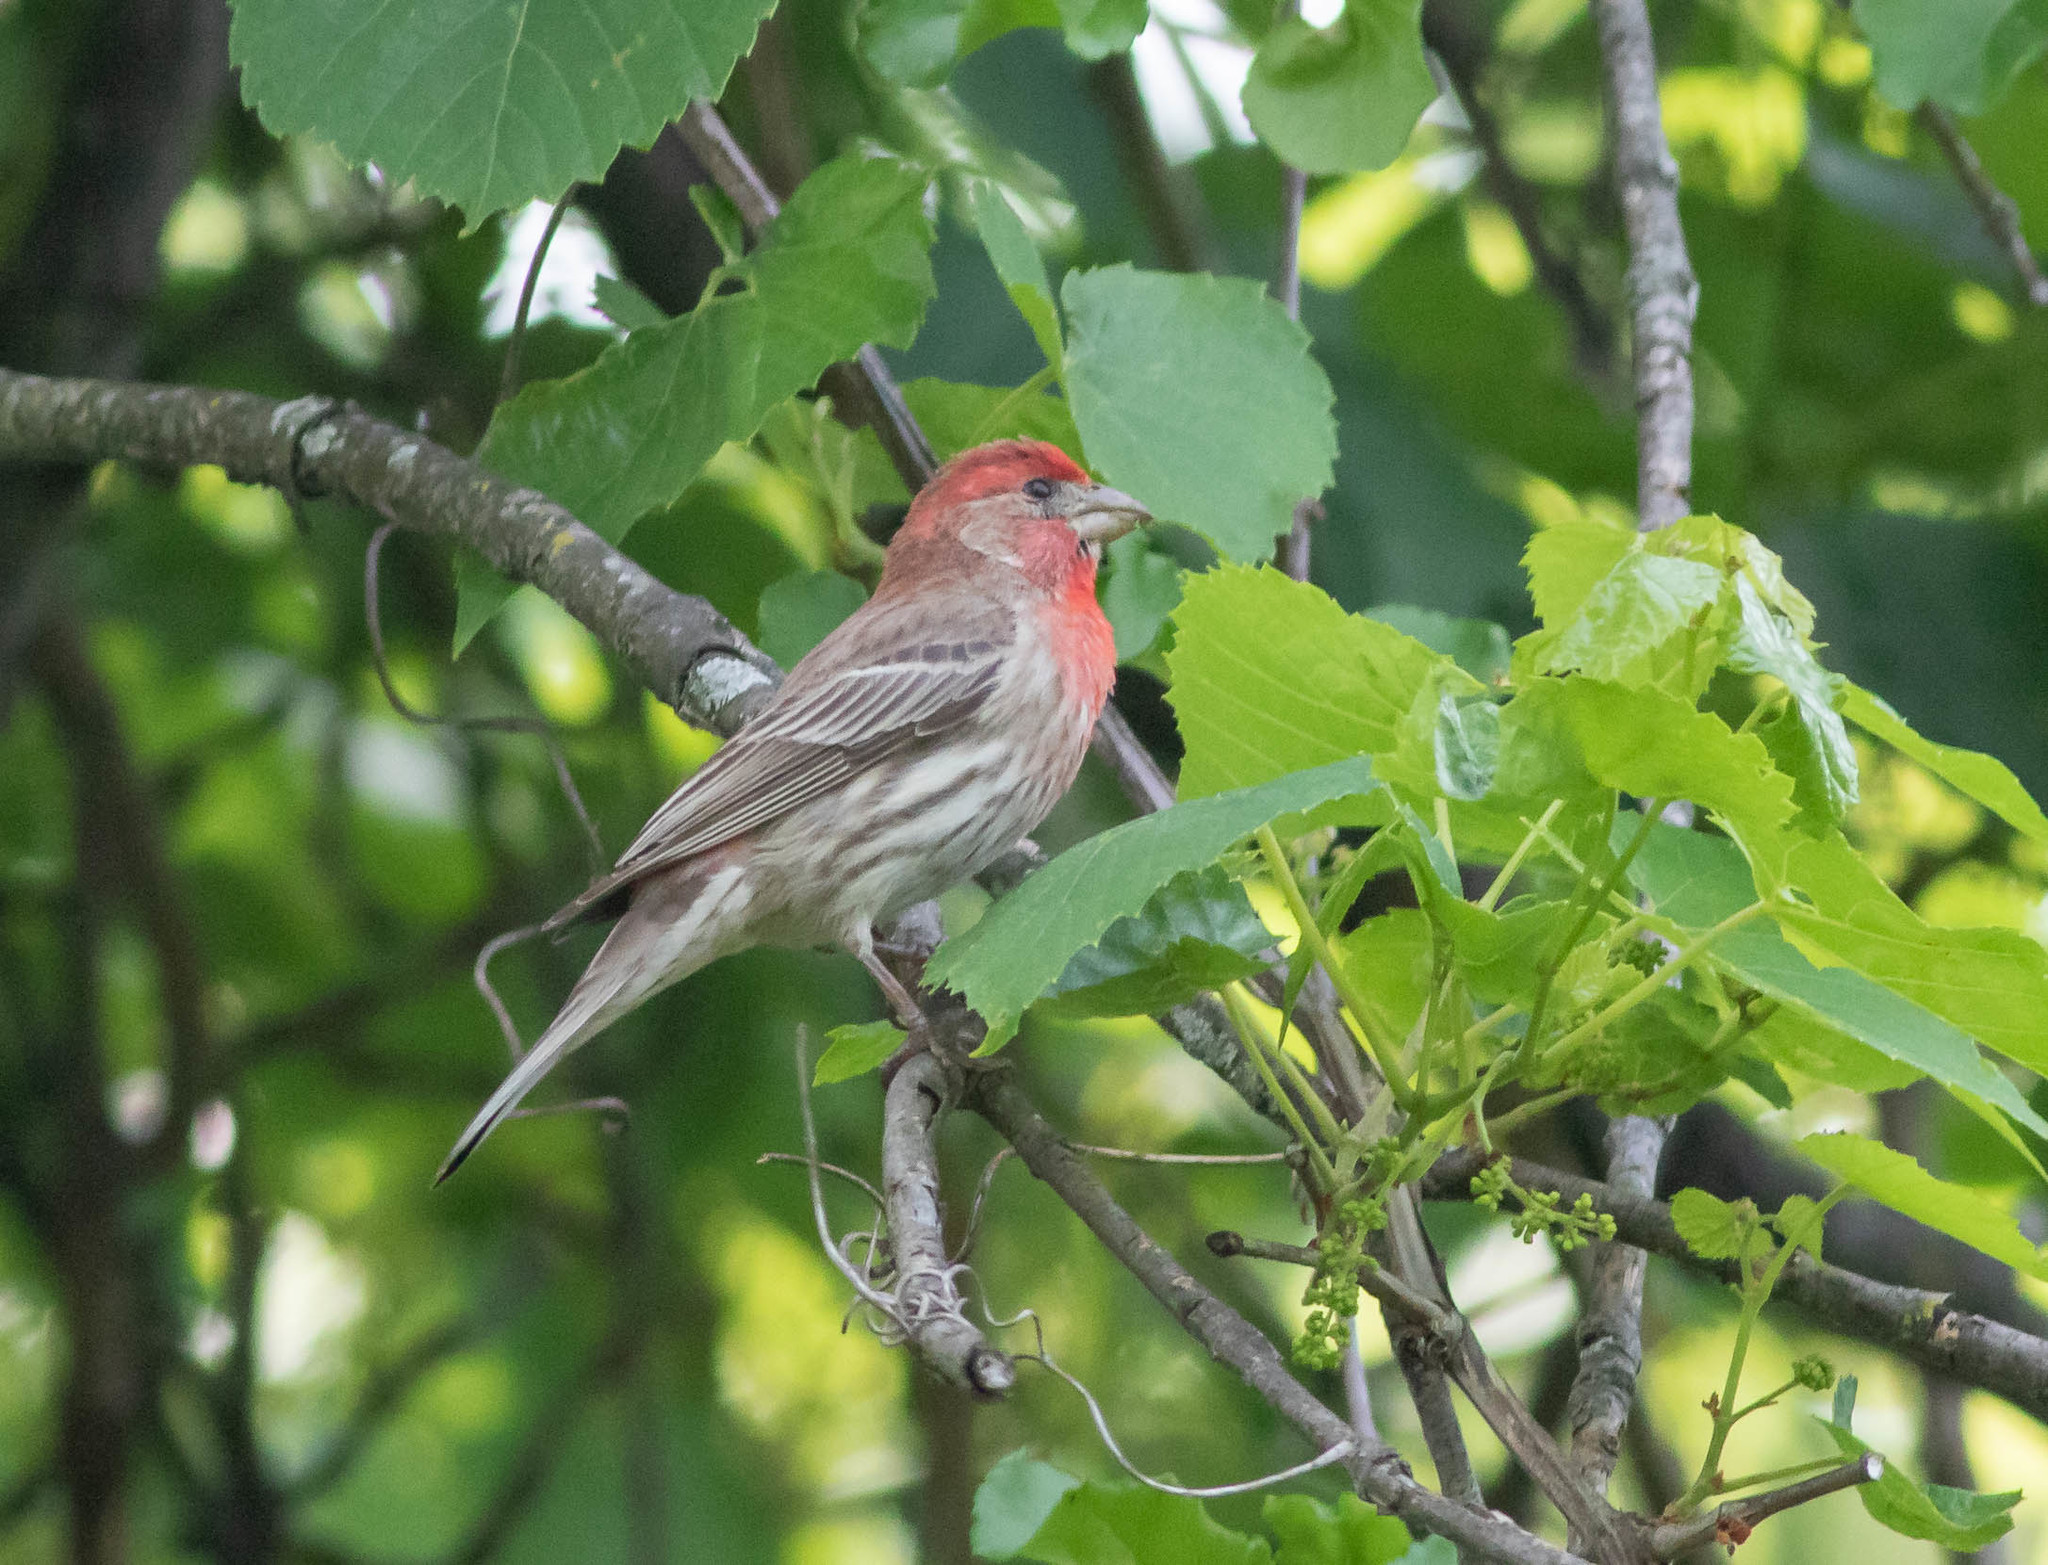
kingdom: Animalia
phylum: Chordata
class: Aves
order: Passeriformes
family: Fringillidae
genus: Haemorhous
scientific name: Haemorhous mexicanus
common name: House finch
